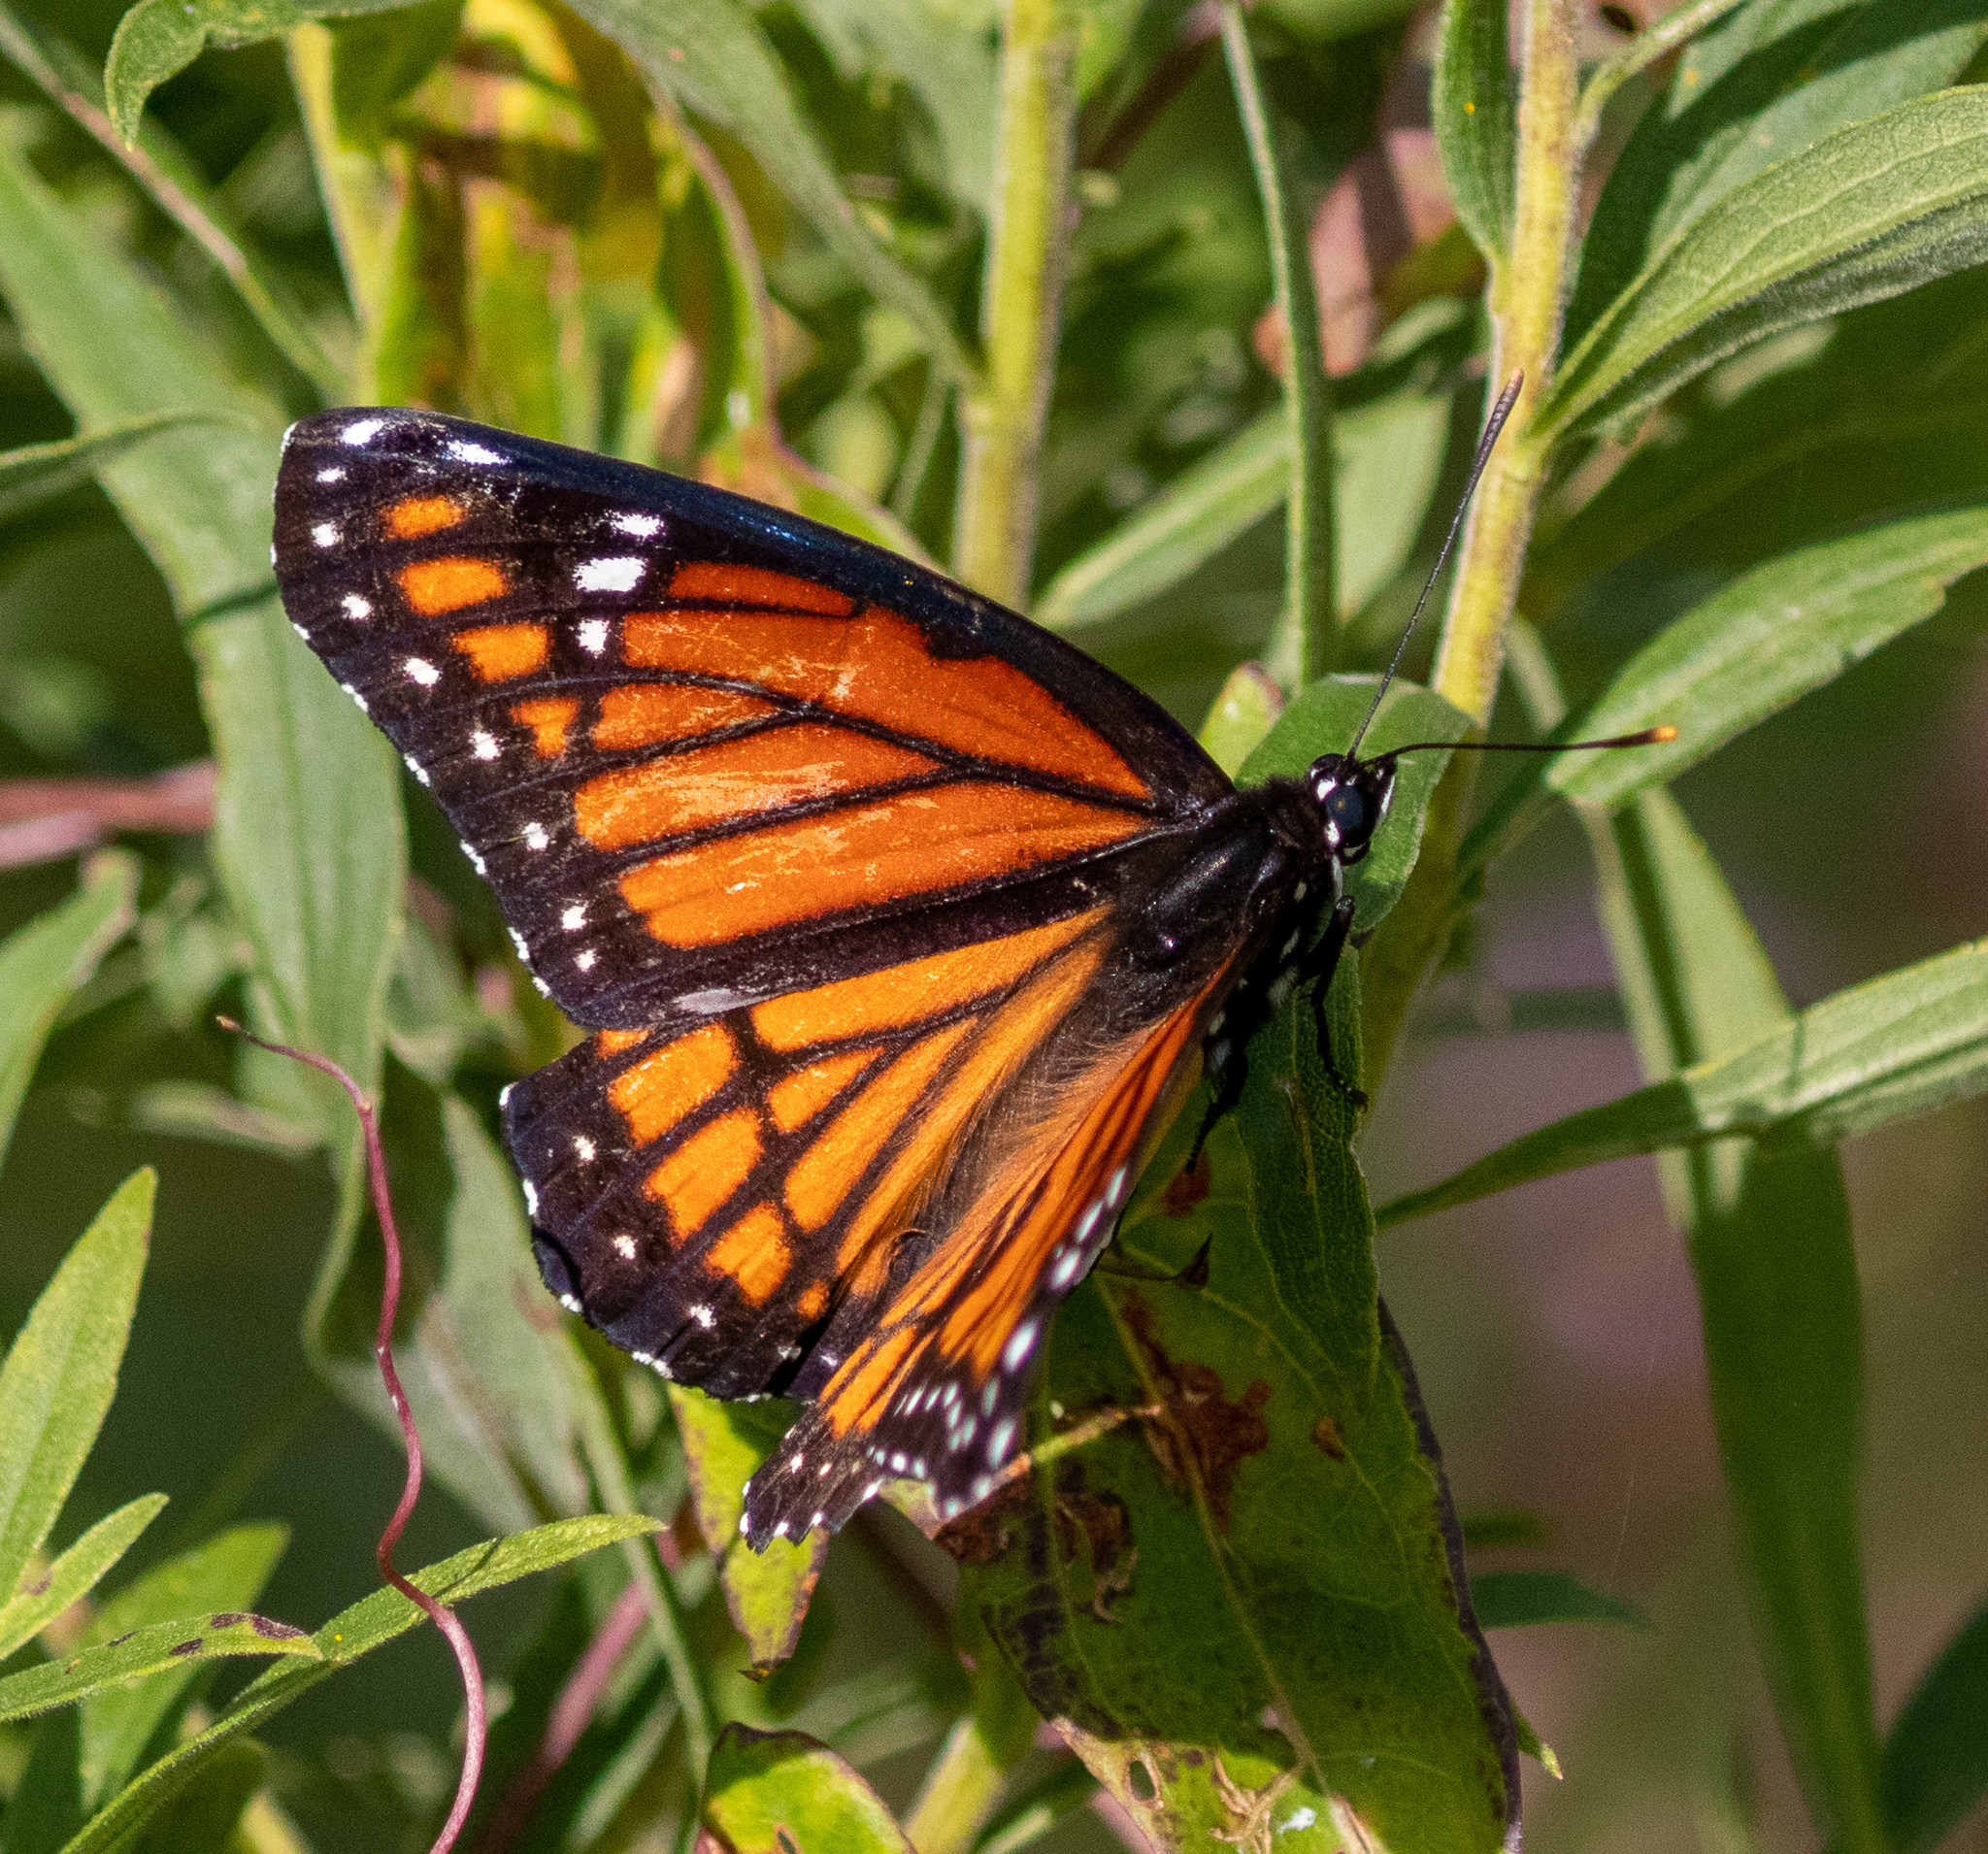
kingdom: Animalia
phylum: Arthropoda
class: Insecta
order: Lepidoptera
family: Nymphalidae
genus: Limenitis
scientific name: Limenitis archippus
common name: Viceroy
